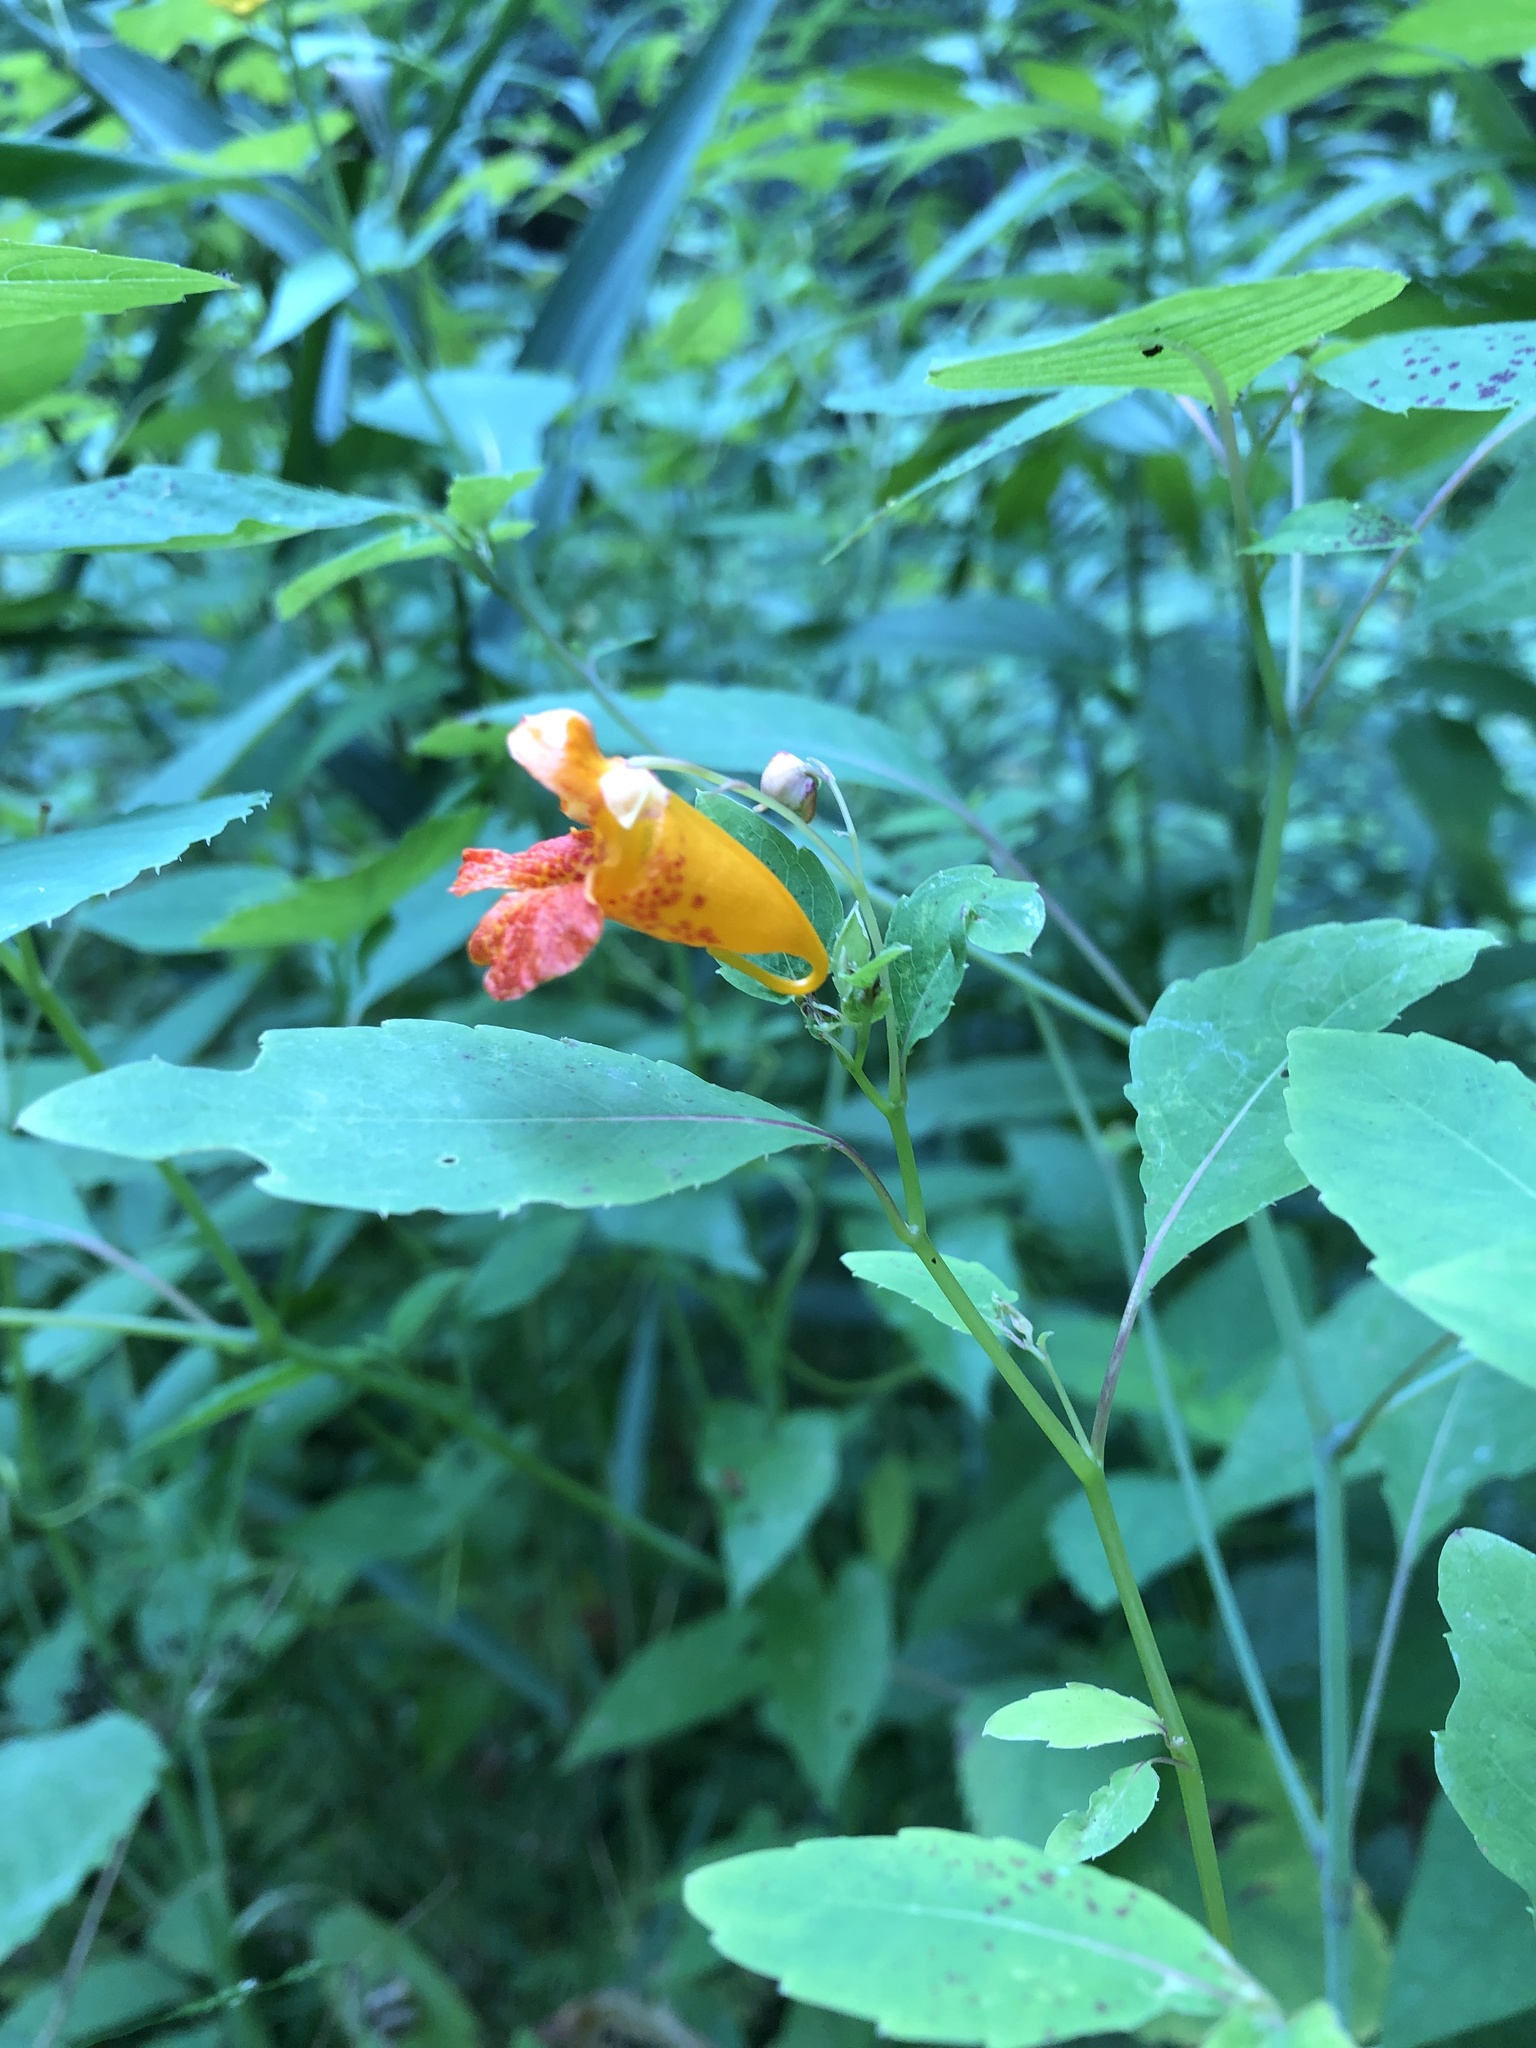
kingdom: Plantae
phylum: Tracheophyta
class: Magnoliopsida
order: Ericales
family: Balsaminaceae
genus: Impatiens
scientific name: Impatiens capensis
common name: Orange balsam
